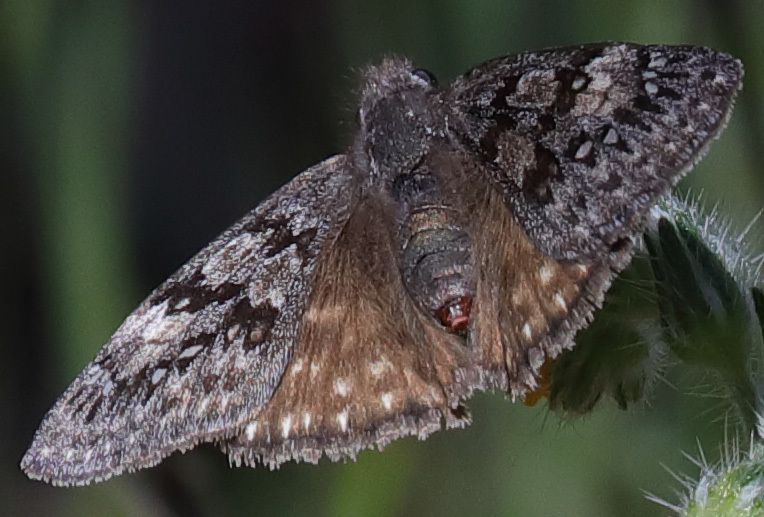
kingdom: Animalia
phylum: Arthropoda
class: Insecta
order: Lepidoptera
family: Hesperiidae
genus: Erynnis
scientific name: Erynnis propertius
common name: Propertius duskywing
